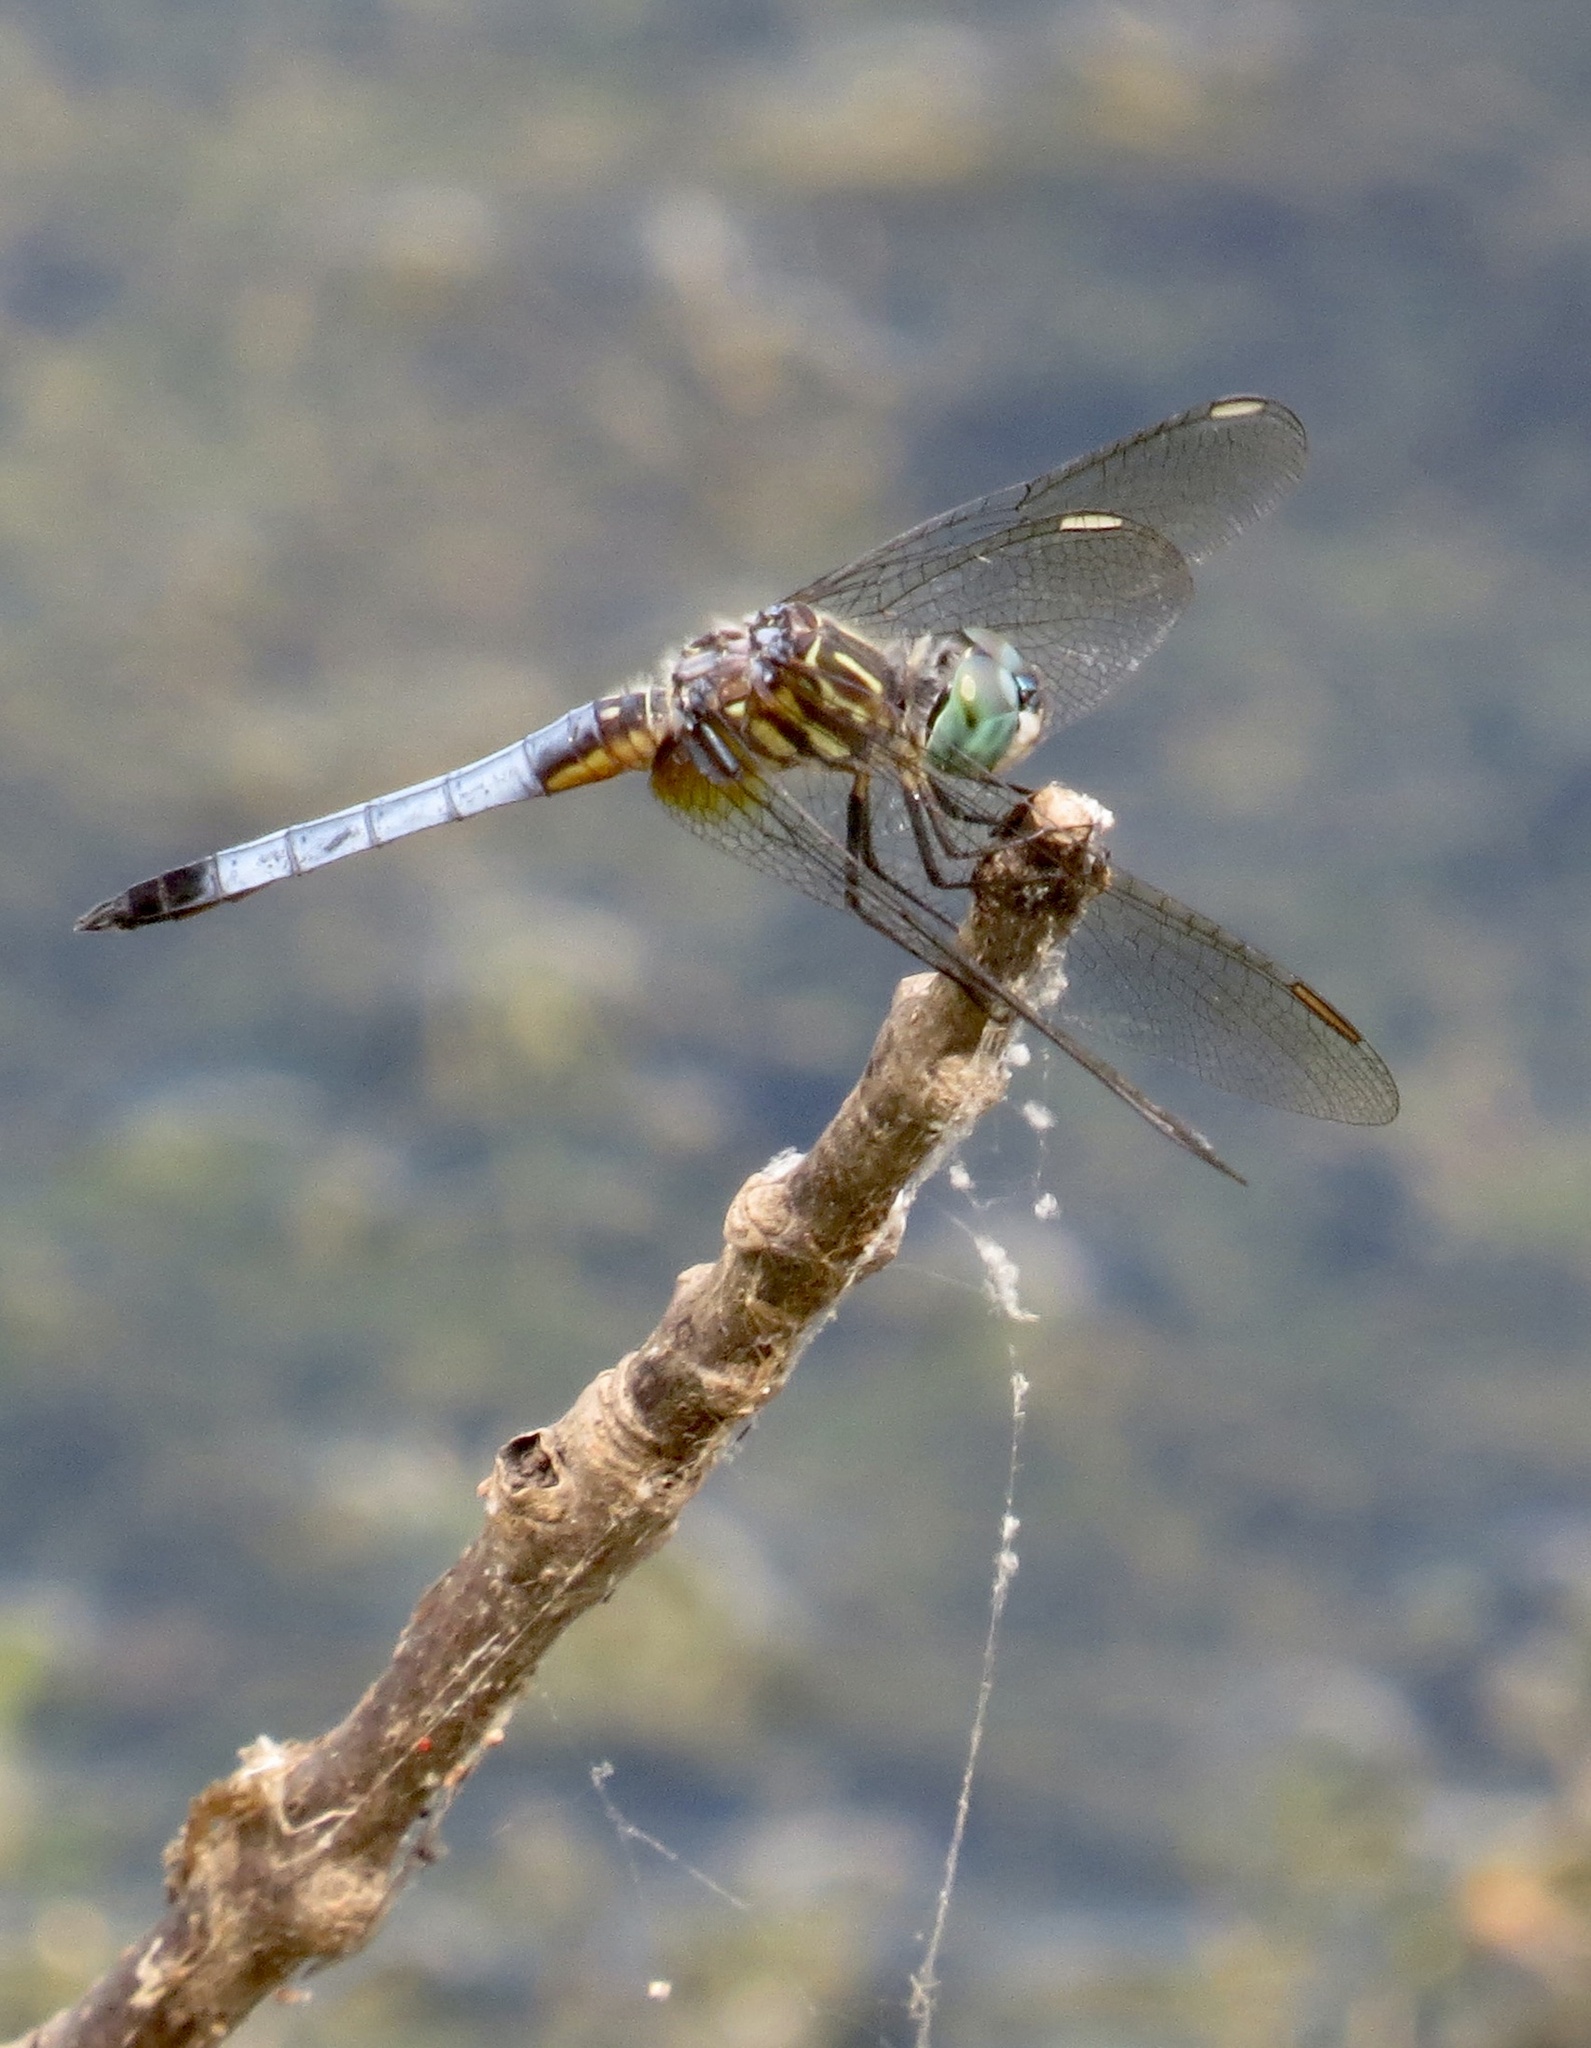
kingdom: Animalia
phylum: Arthropoda
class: Insecta
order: Odonata
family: Libellulidae
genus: Pachydiplax
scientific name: Pachydiplax longipennis
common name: Blue dasher
